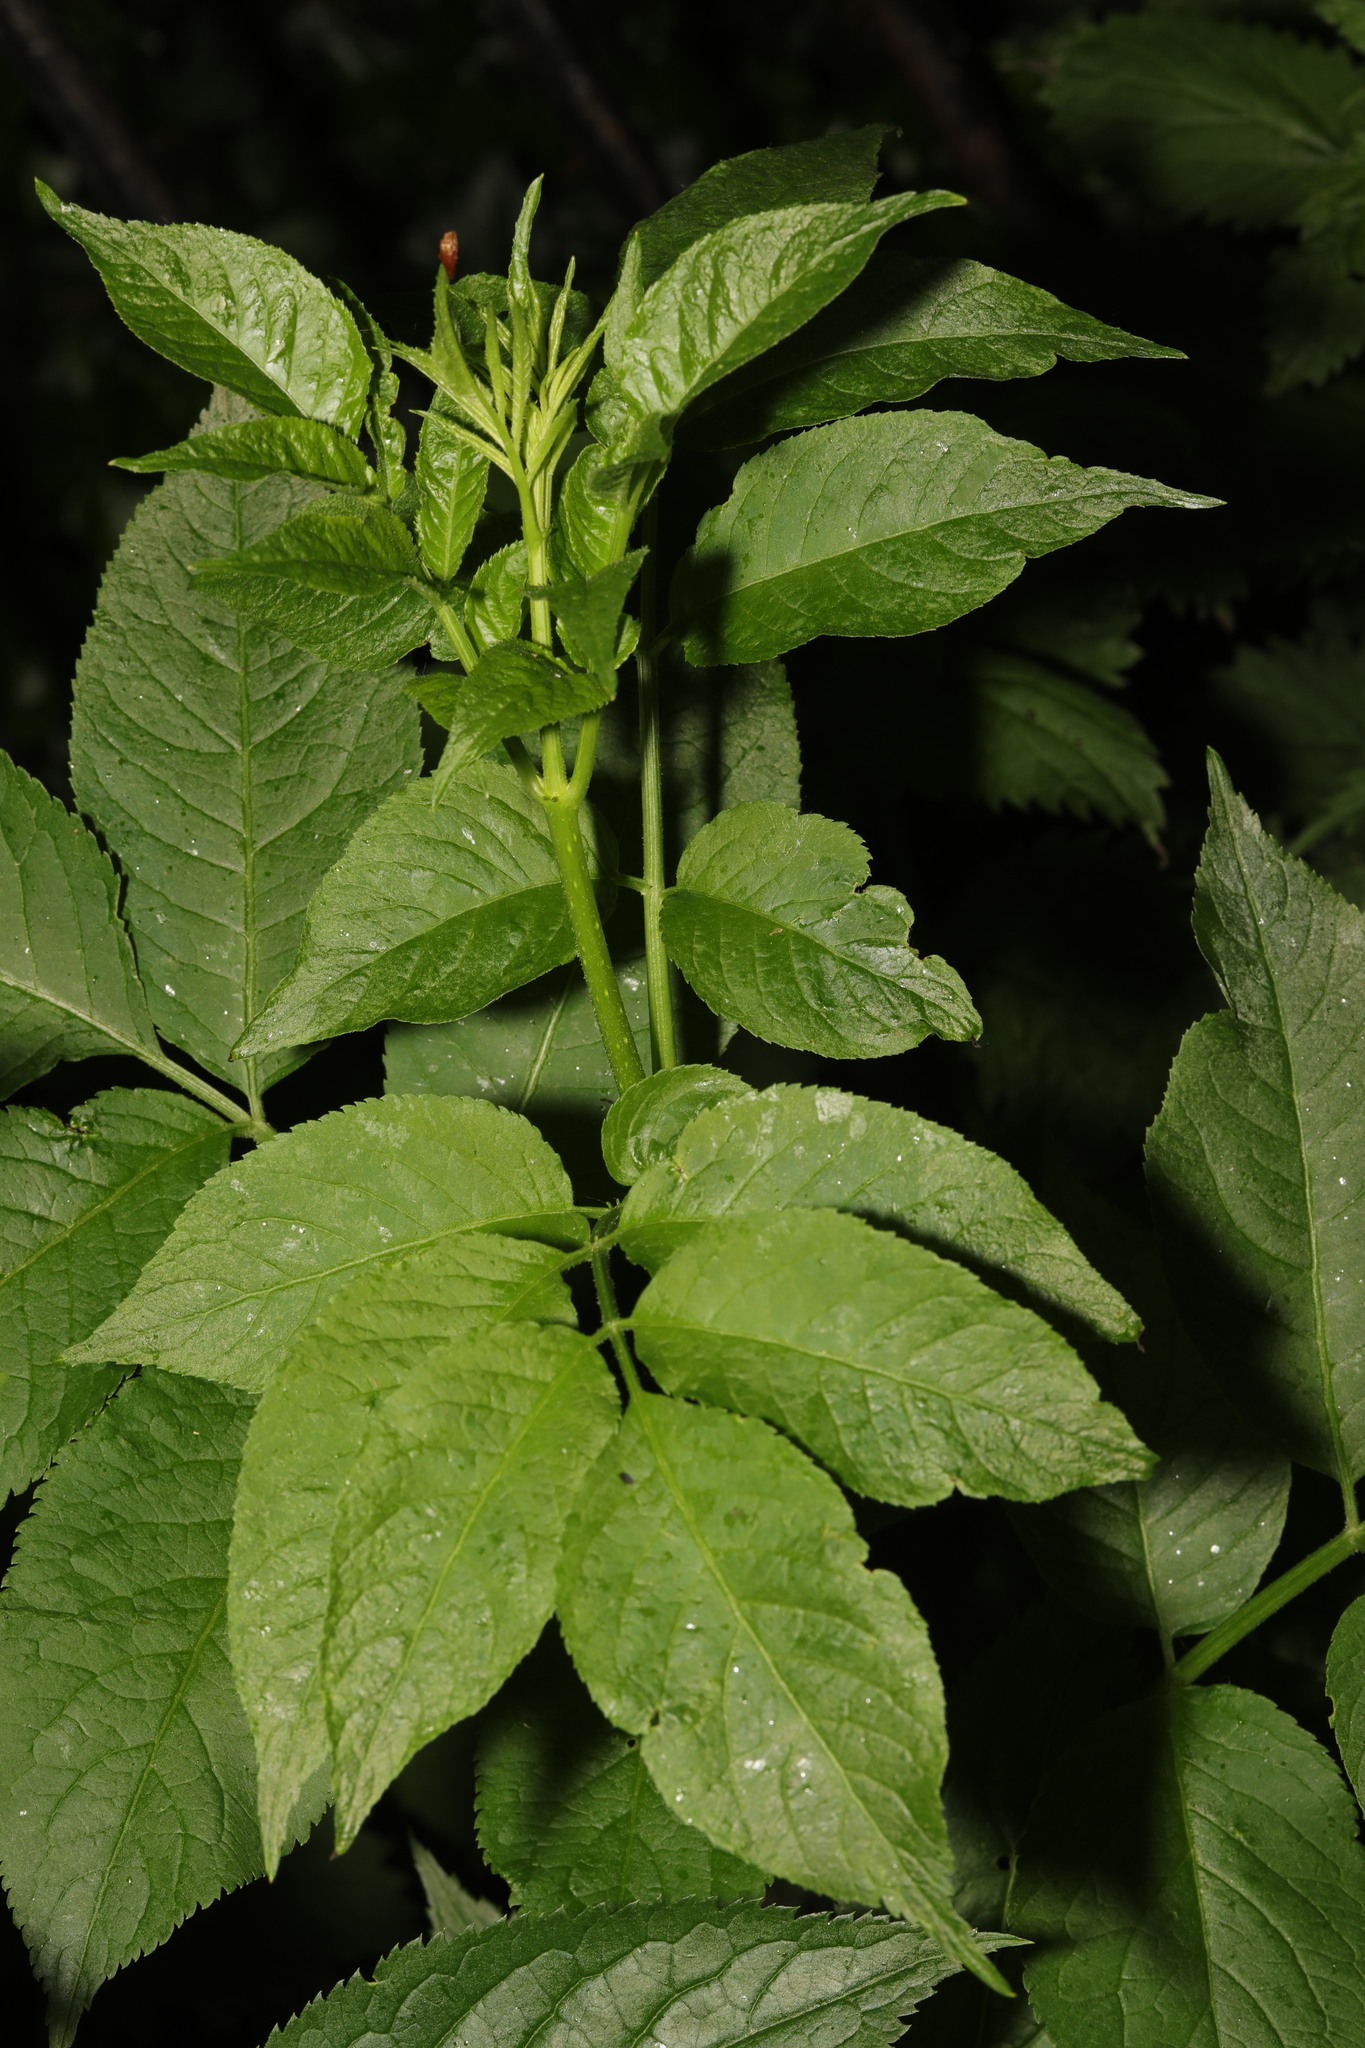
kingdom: Plantae
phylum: Tracheophyta
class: Magnoliopsida
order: Dipsacales
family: Viburnaceae
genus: Sambucus
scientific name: Sambucus nigra
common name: Elder
